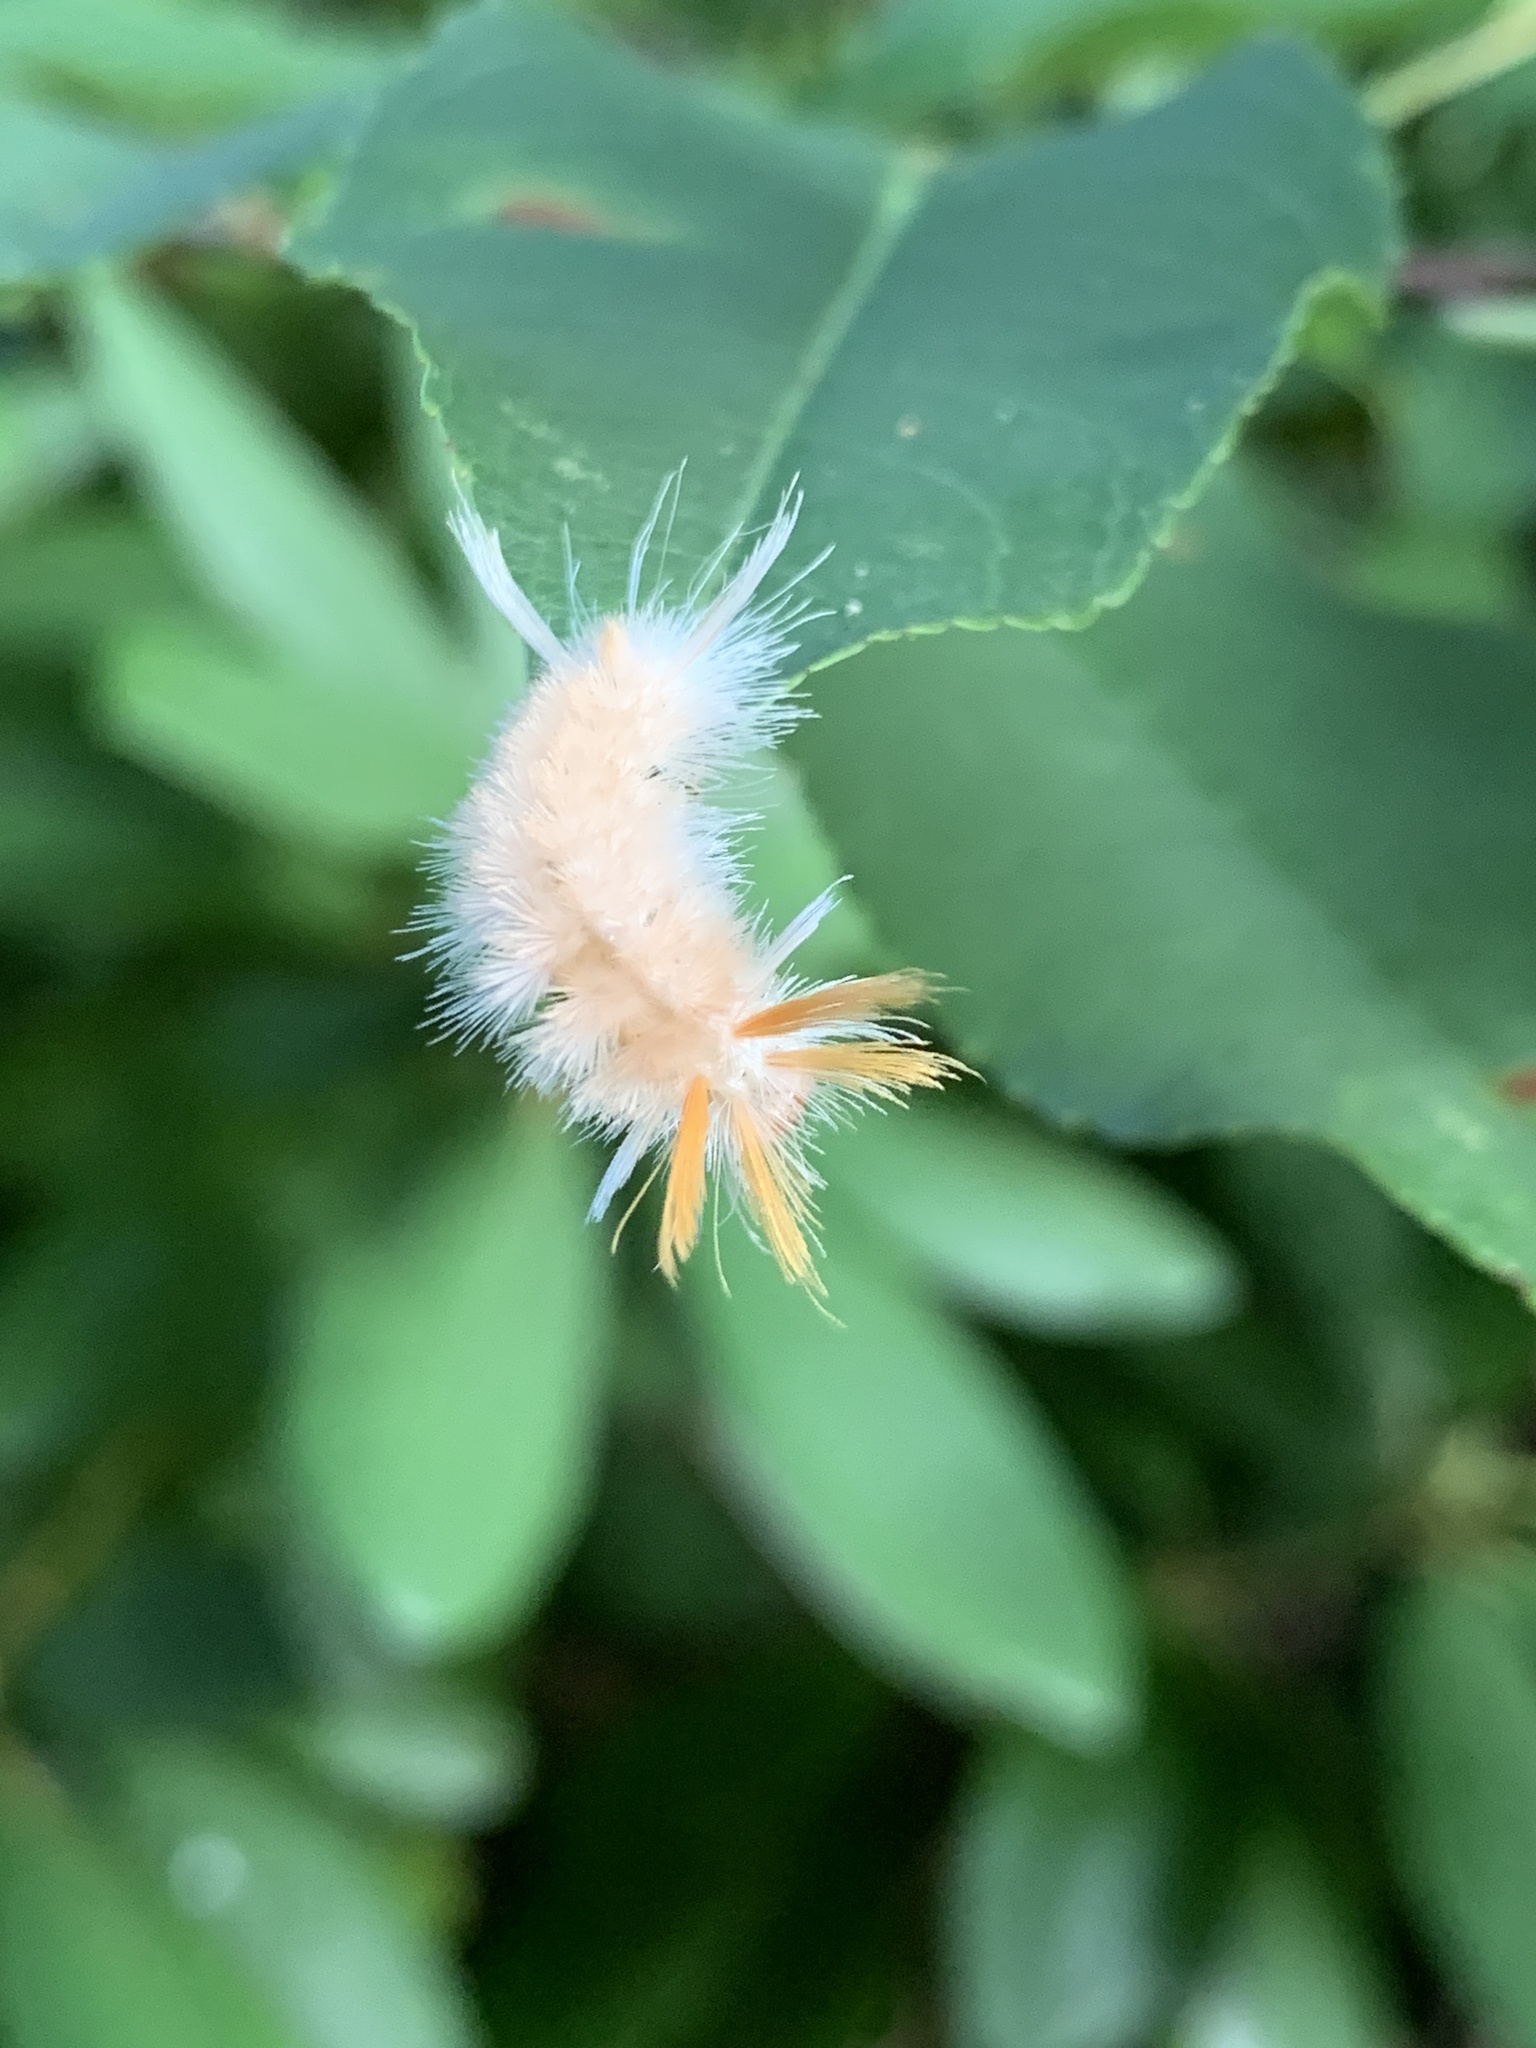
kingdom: Animalia
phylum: Arthropoda
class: Insecta
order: Lepidoptera
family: Erebidae
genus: Halysidota
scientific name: Halysidota harrisii
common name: Sycamore tussock moth
